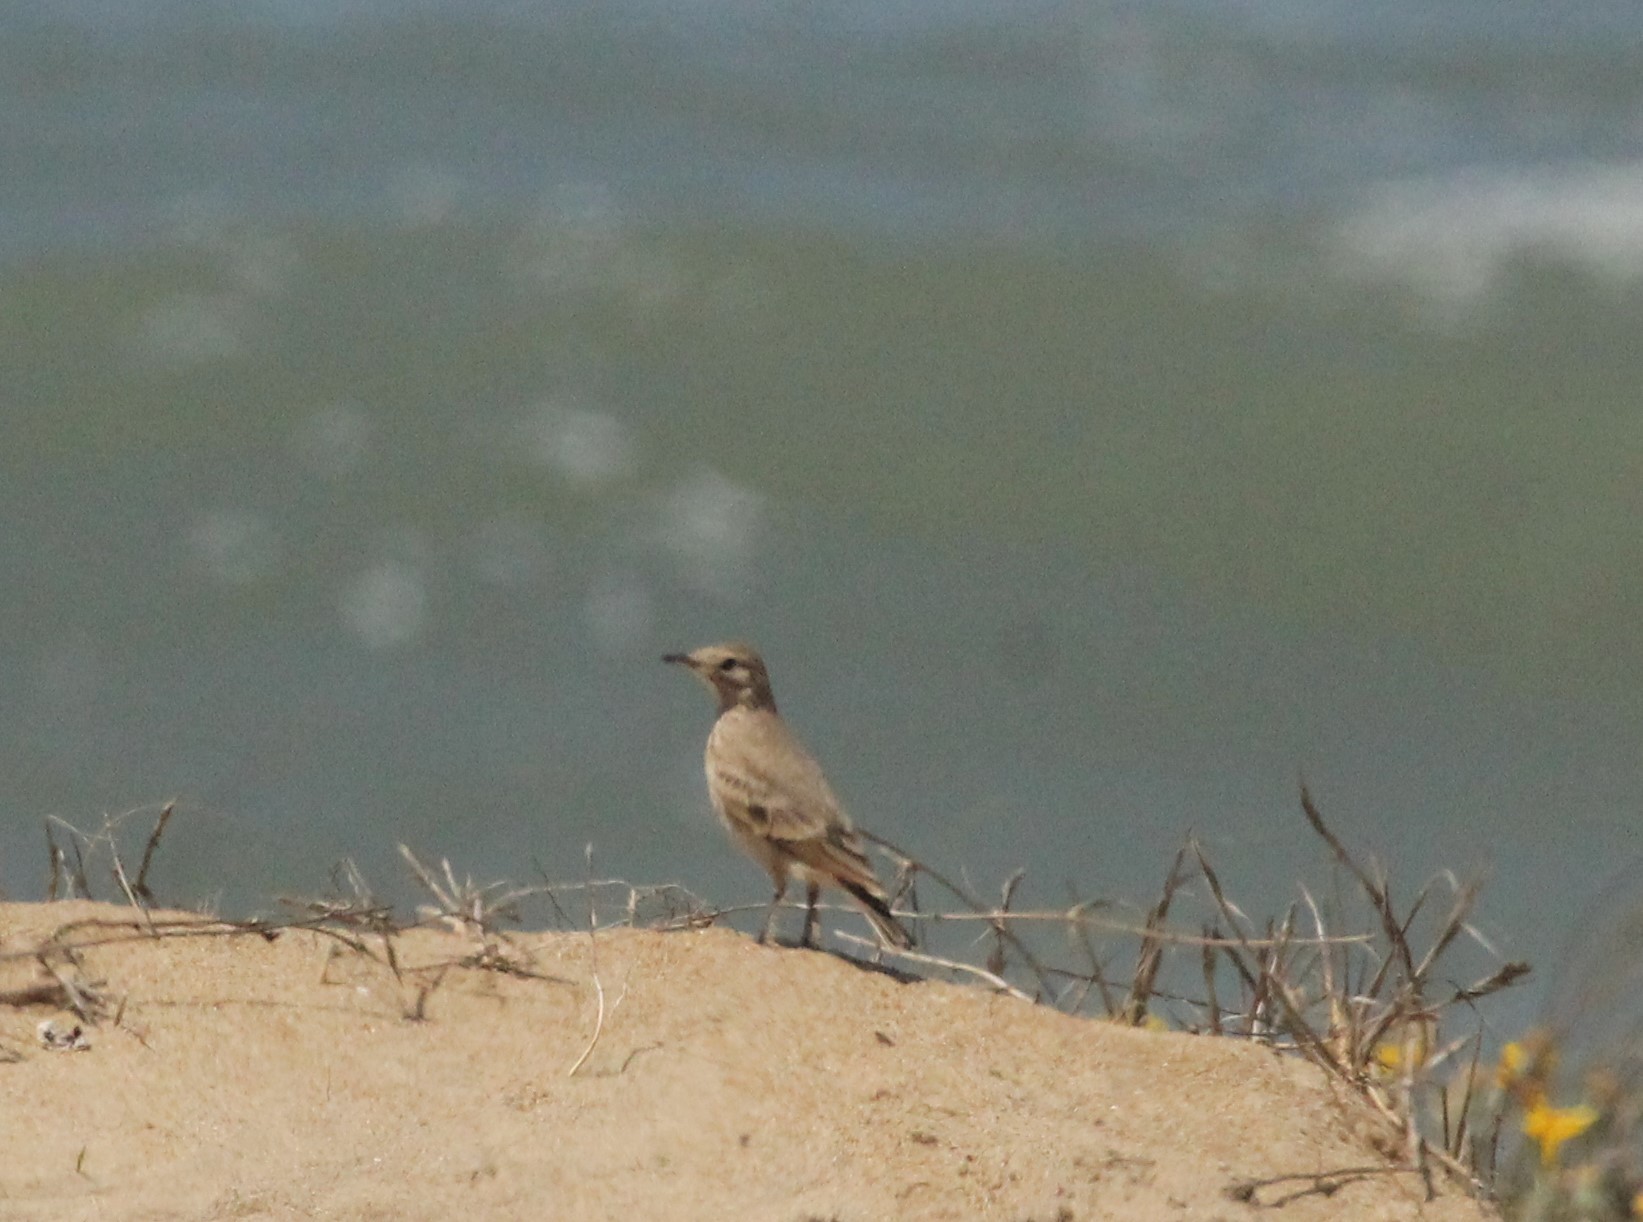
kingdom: Animalia
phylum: Chordata
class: Aves
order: Passeriformes
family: Furnariidae
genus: Geositta
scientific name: Geositta cunicularia
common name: Common miner
